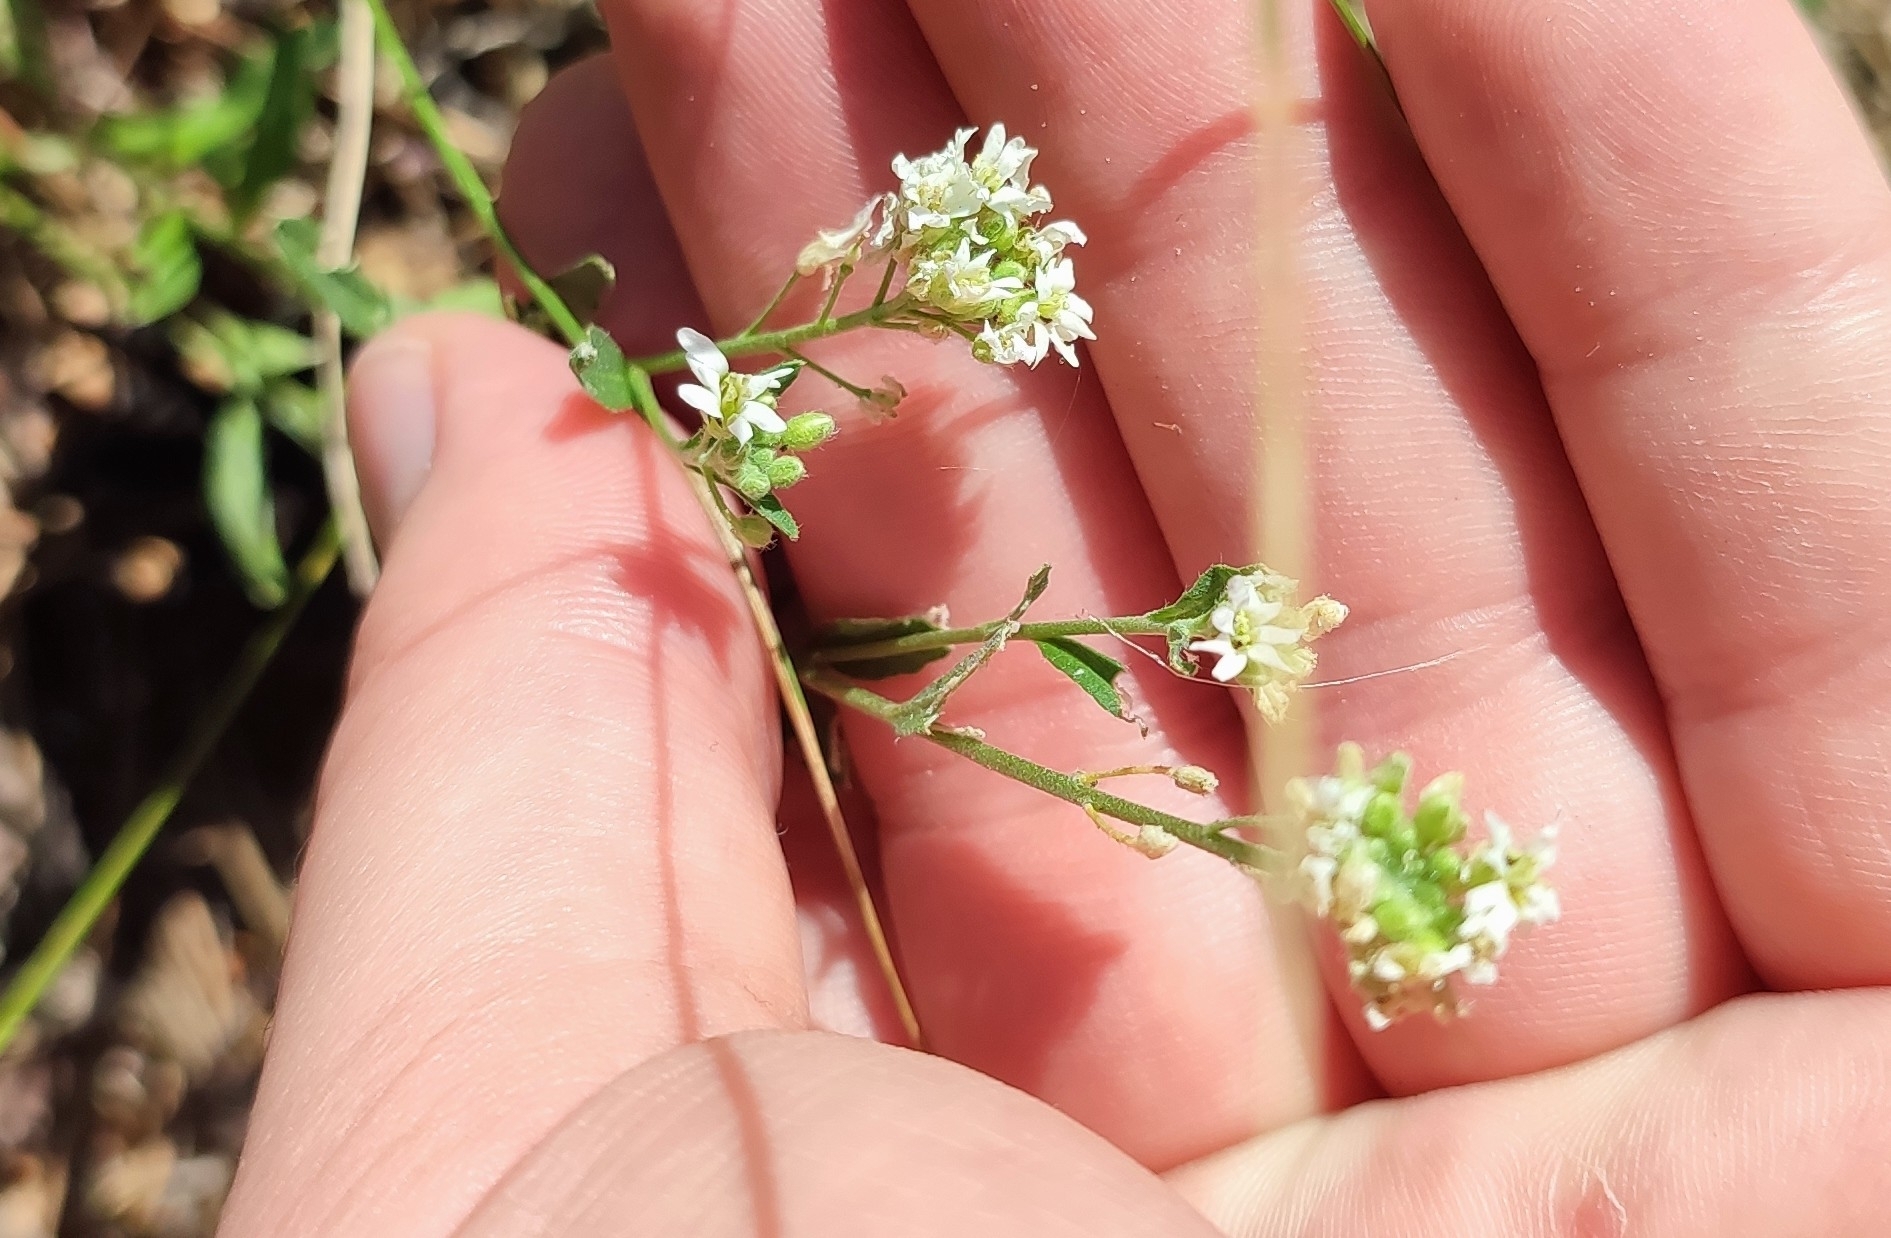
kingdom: Plantae
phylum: Tracheophyta
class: Magnoliopsida
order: Brassicales
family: Brassicaceae
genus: Berteroa
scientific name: Berteroa incana
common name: Hoary alison
